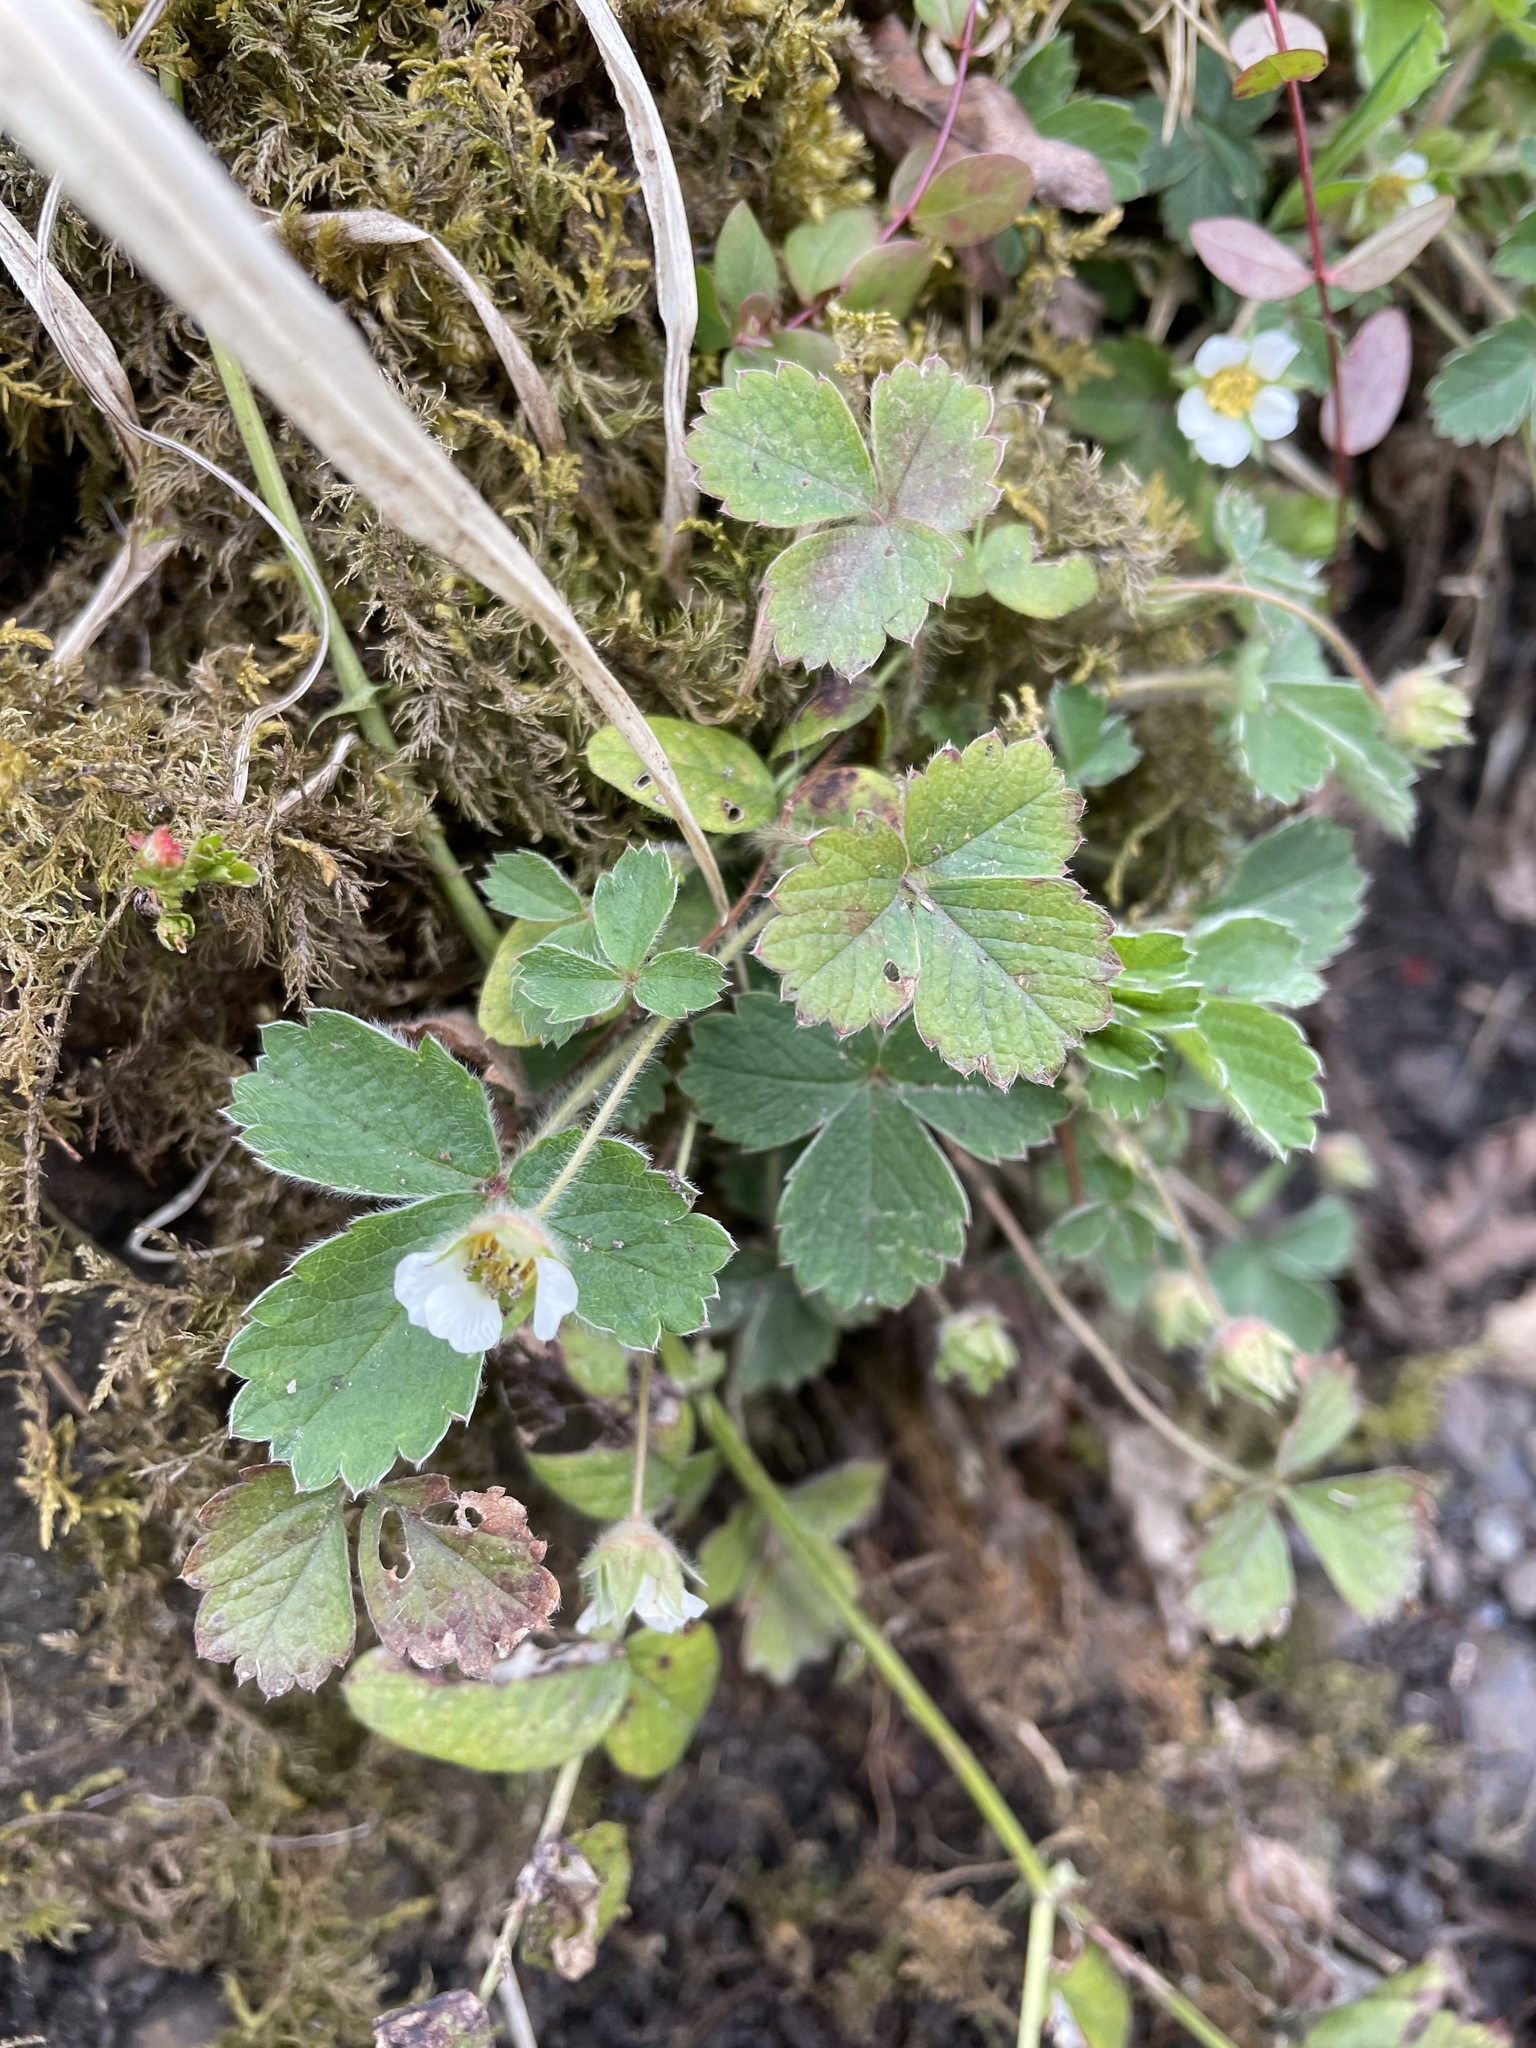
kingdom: Plantae
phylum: Tracheophyta
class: Magnoliopsida
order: Rosales
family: Rosaceae
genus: Potentilla
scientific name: Potentilla sterilis
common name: Barren strawberry
